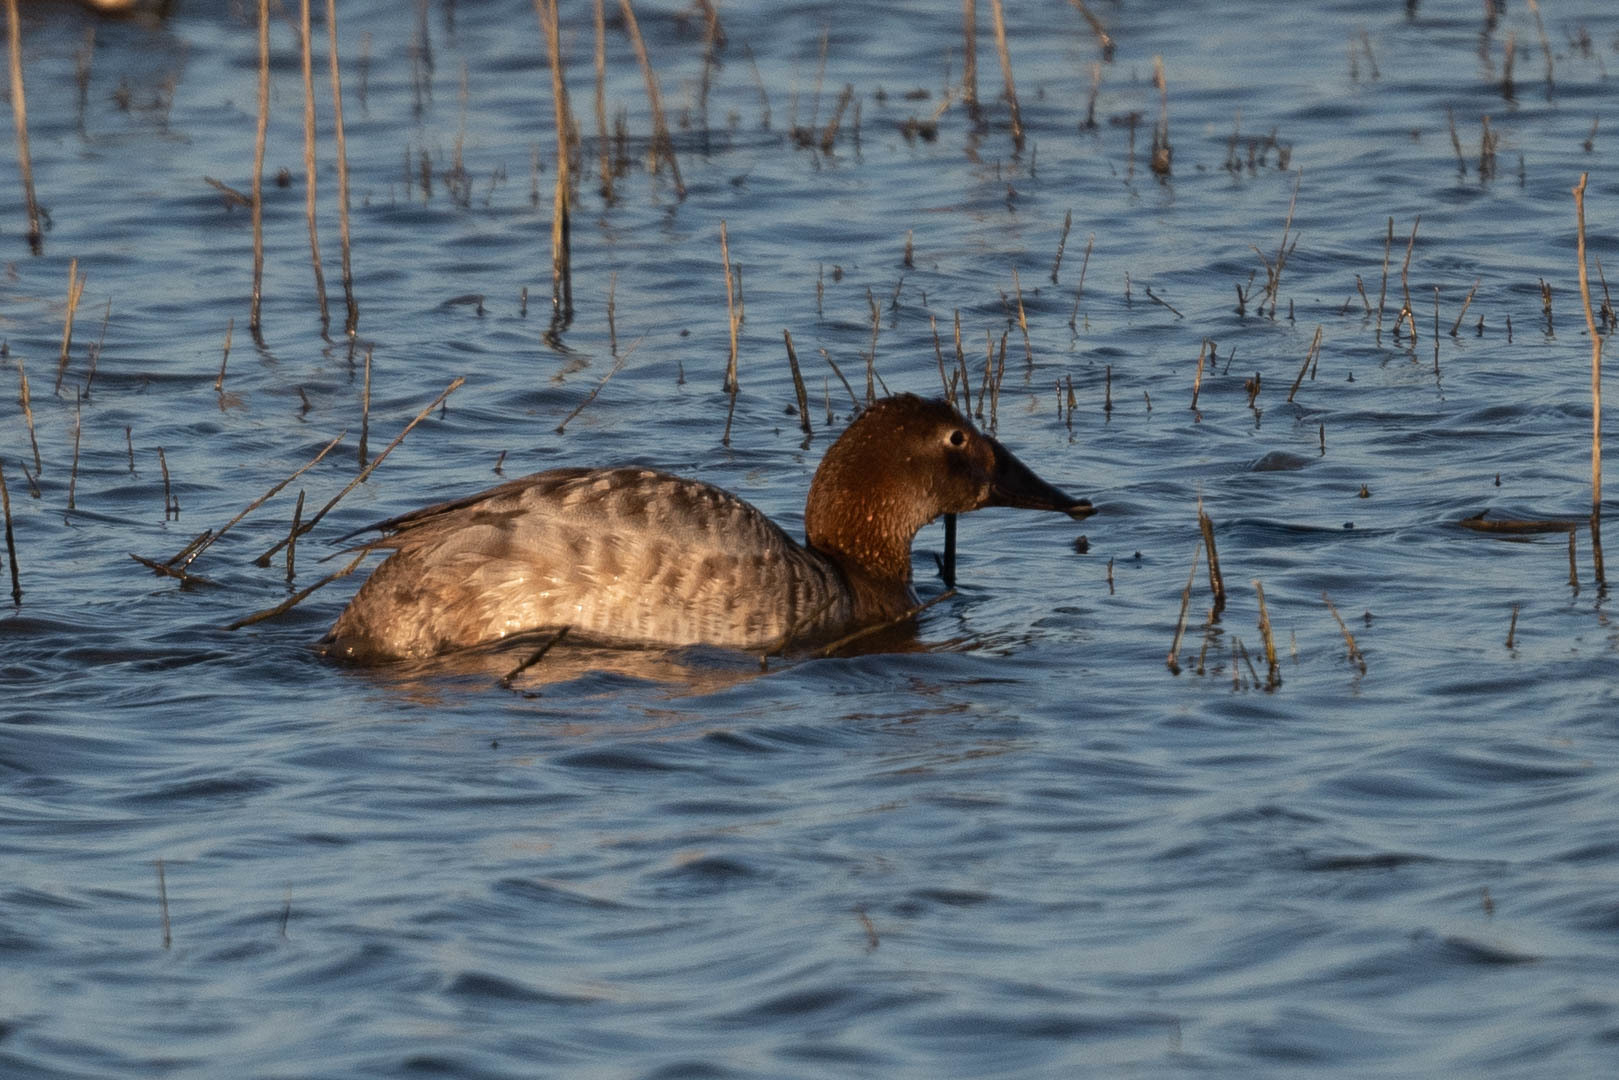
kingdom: Animalia
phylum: Chordata
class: Aves
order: Anseriformes
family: Anatidae
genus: Aythya
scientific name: Aythya valisineria
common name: Canvasback
